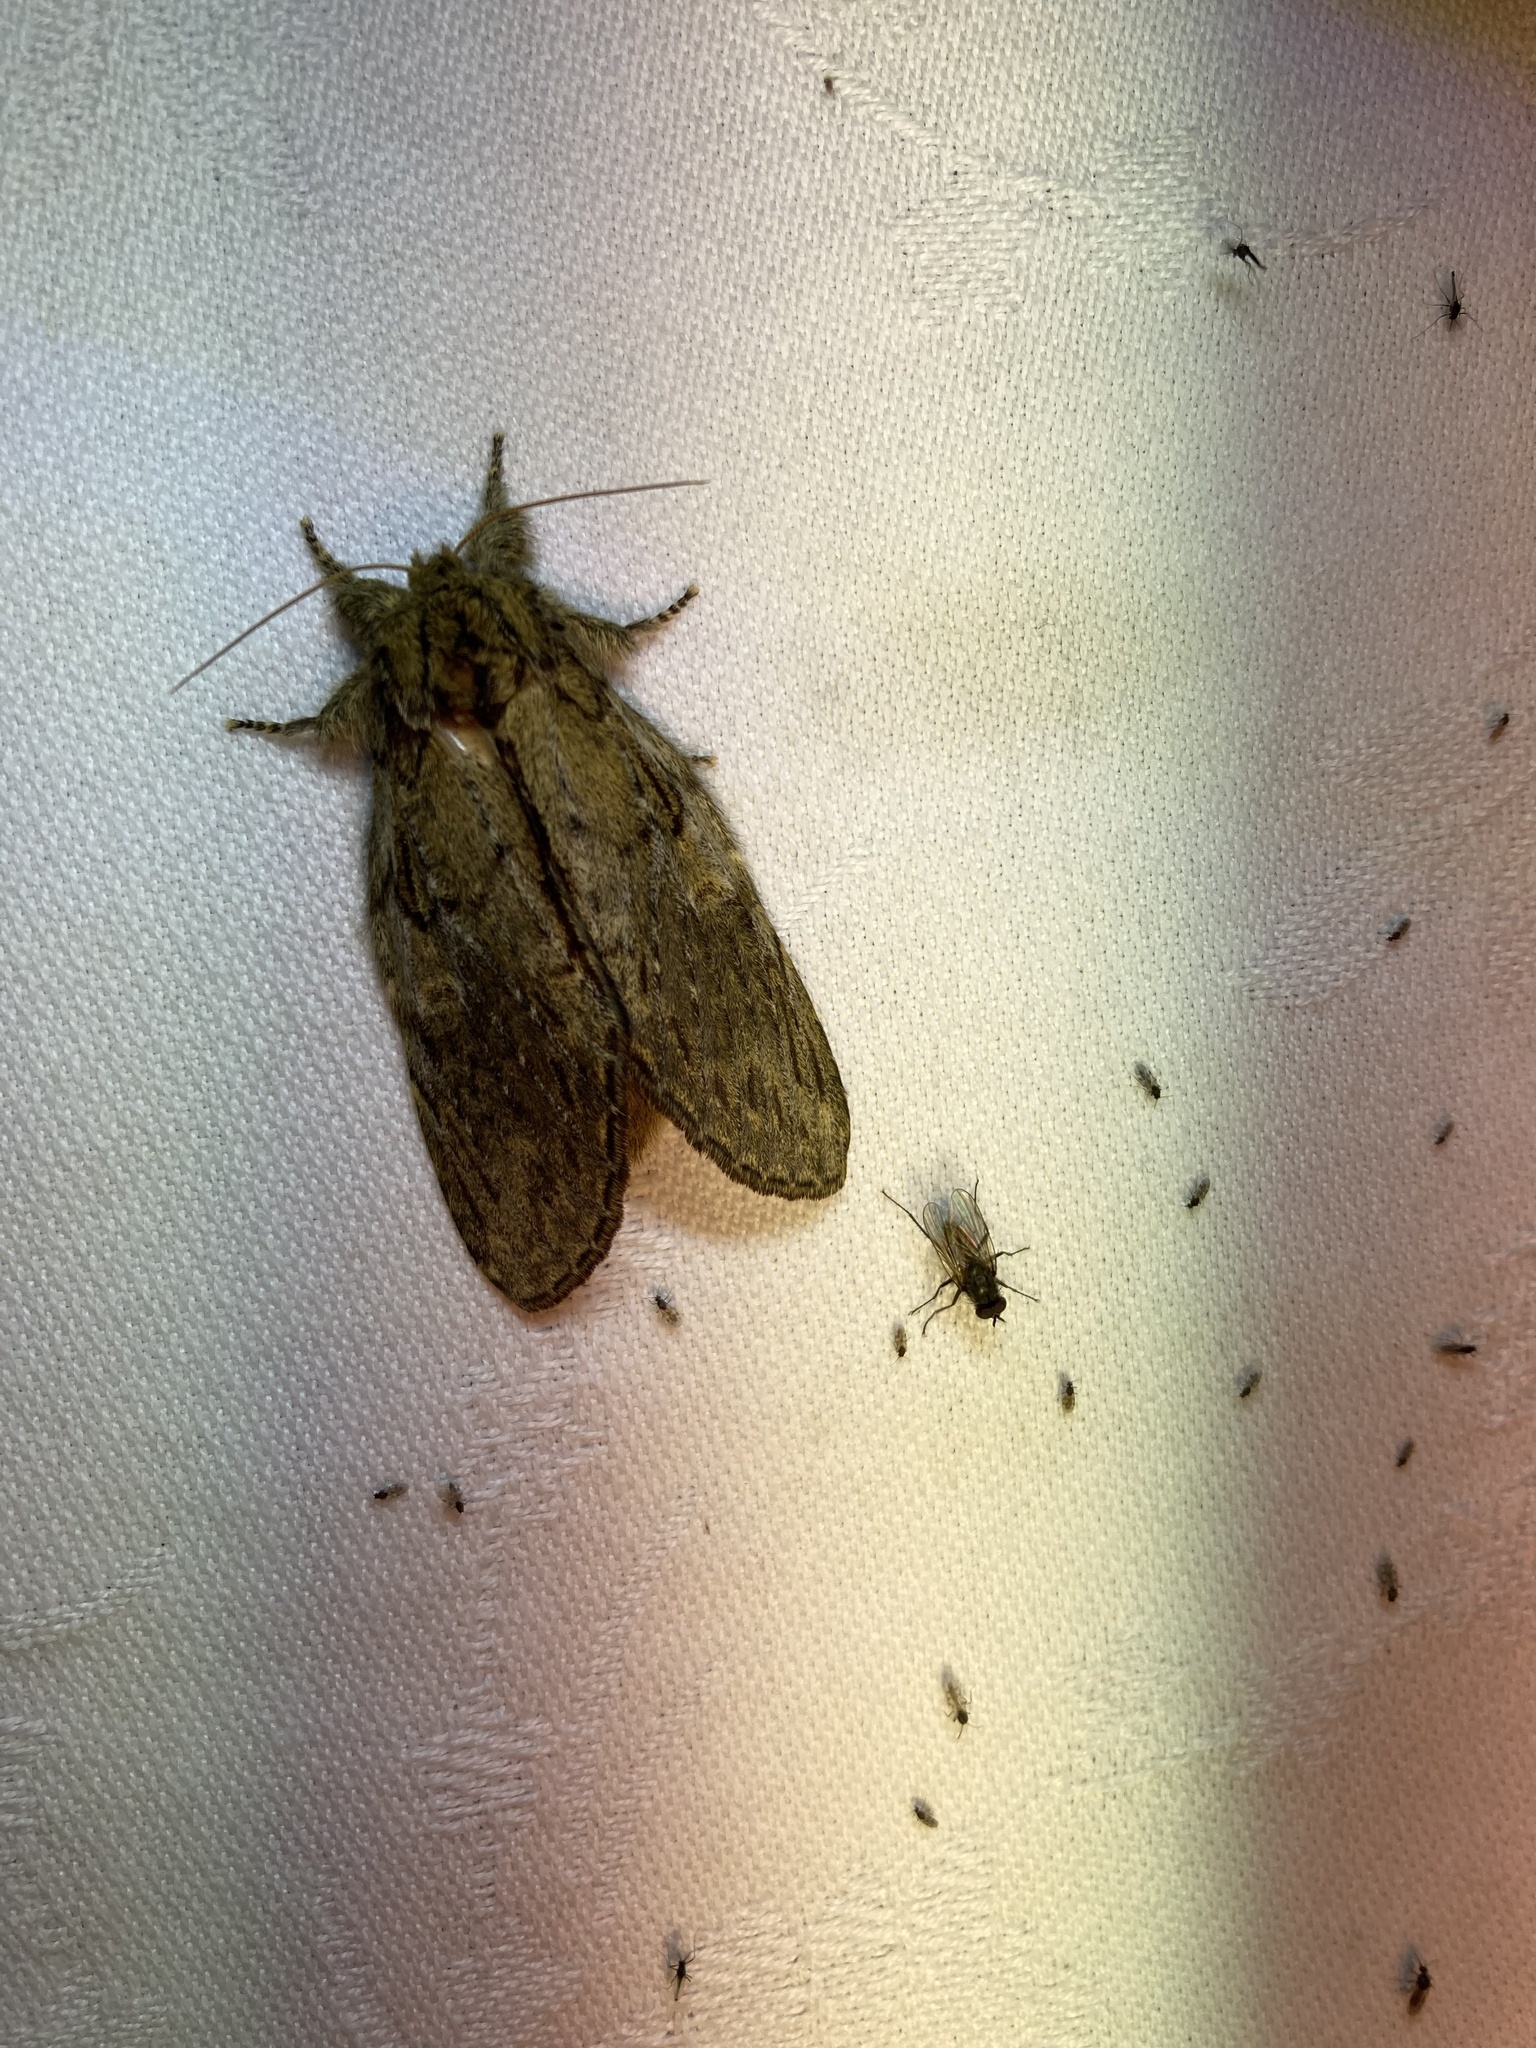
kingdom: Animalia
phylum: Arthropoda
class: Insecta
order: Lepidoptera
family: Notodontidae
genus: Peridea
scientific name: Peridea anceps
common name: Great prominent
